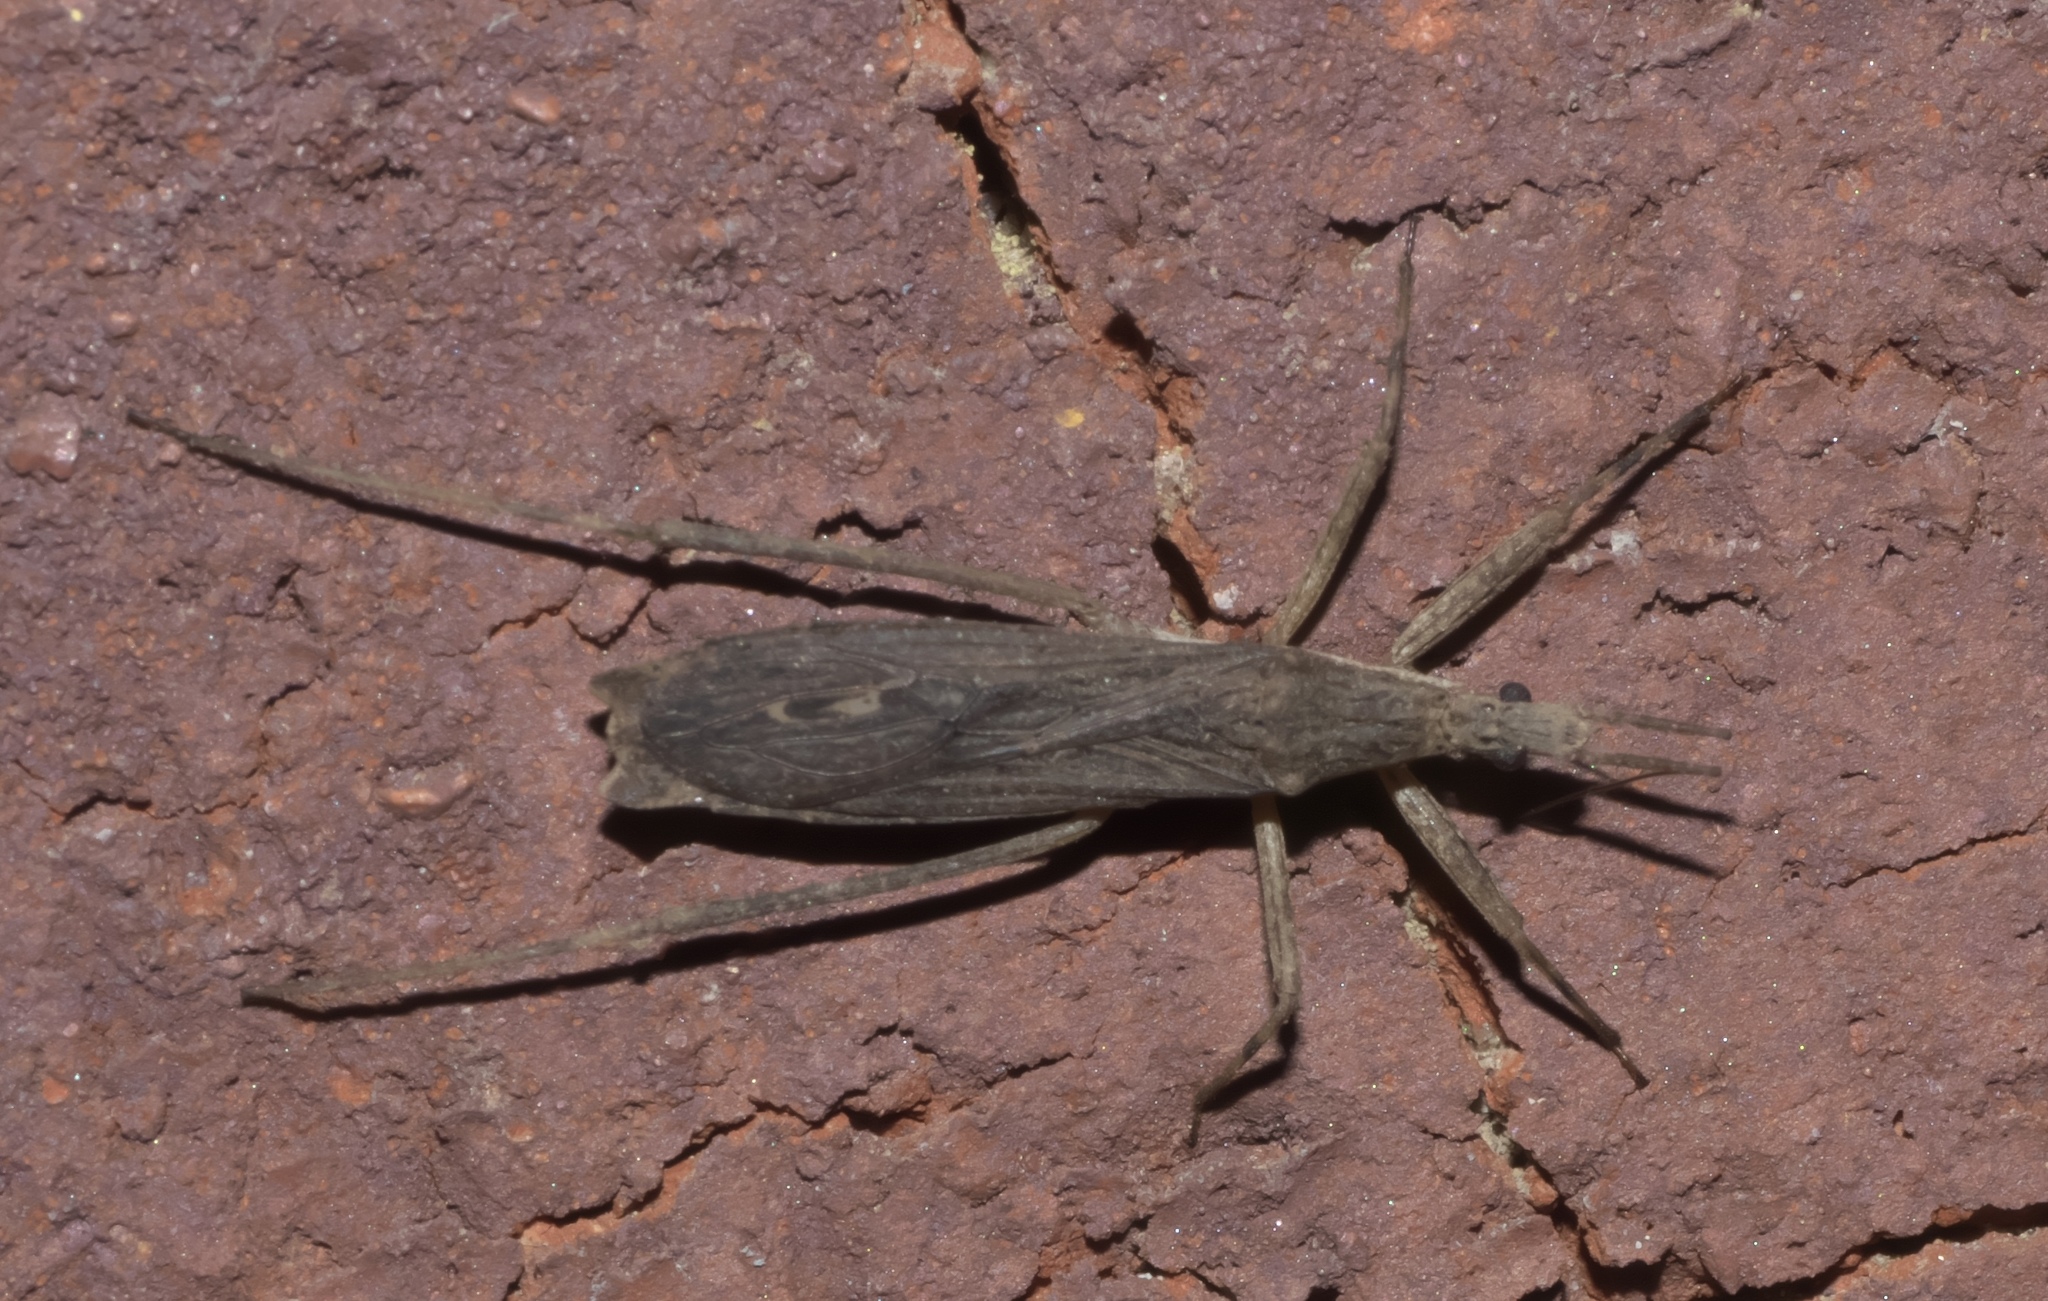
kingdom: Animalia
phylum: Arthropoda
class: Insecta
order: Hemiptera
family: Reduviidae
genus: Pygolampis
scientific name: Pygolampis pectoralis
